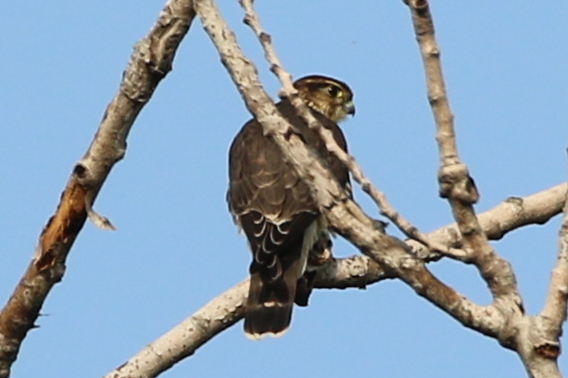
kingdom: Animalia
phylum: Chordata
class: Aves
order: Falconiformes
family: Falconidae
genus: Falco
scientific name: Falco columbarius
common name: Merlin
